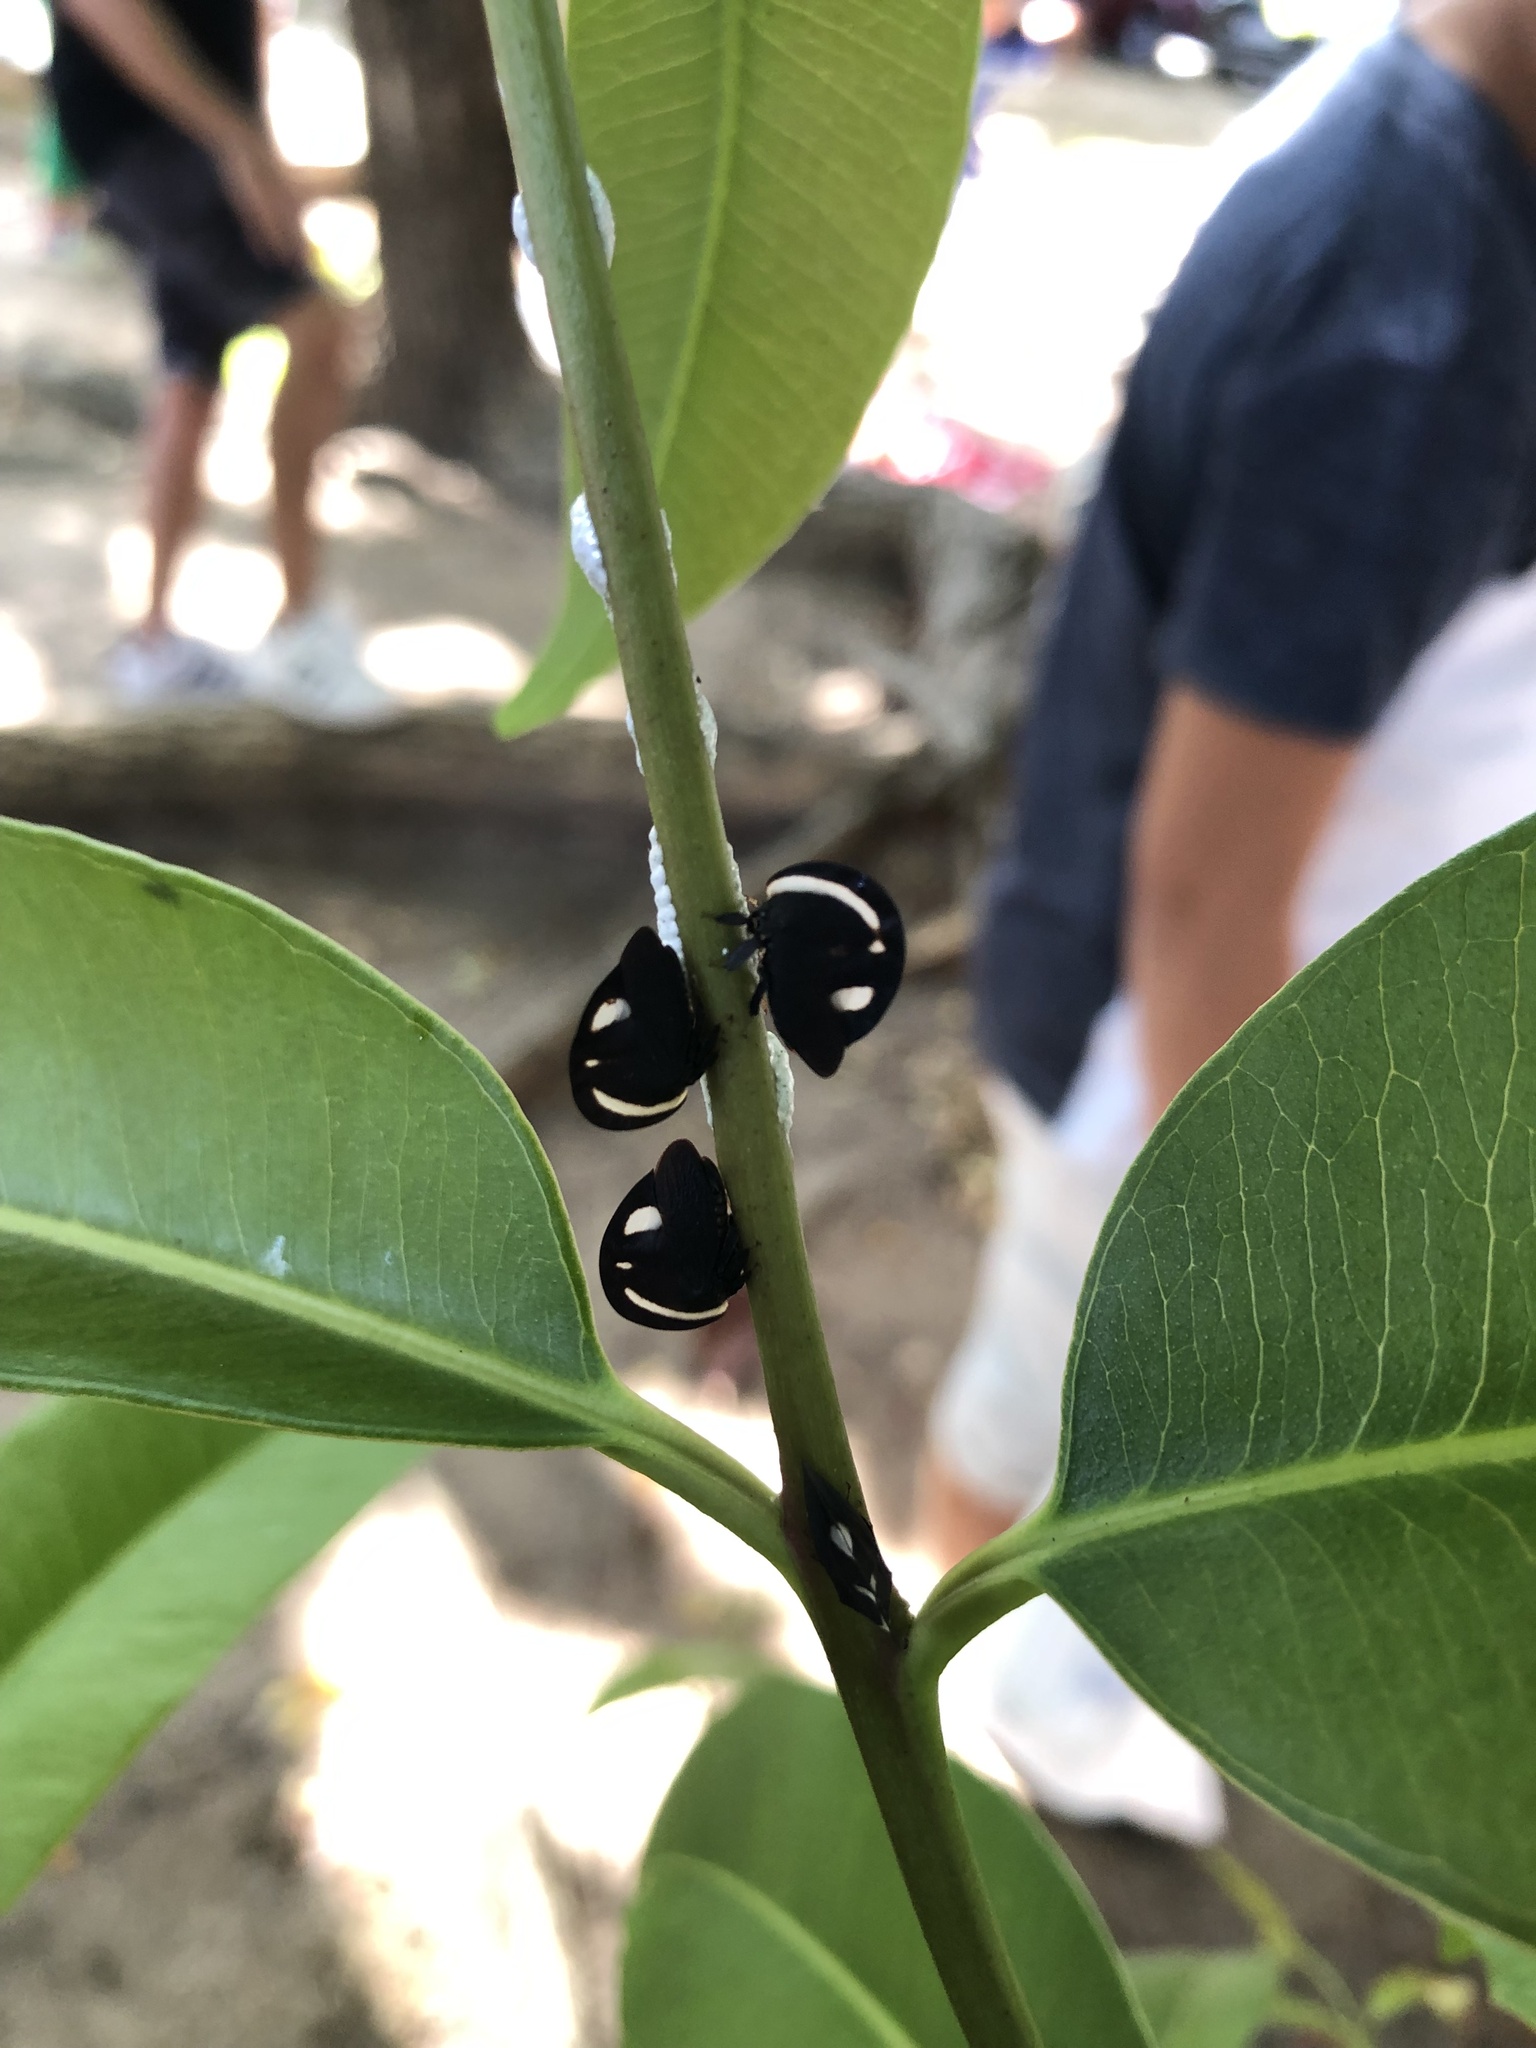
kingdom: Animalia
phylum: Arthropoda
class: Insecta
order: Hemiptera
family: Membracidae
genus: Membracis
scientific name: Membracis
